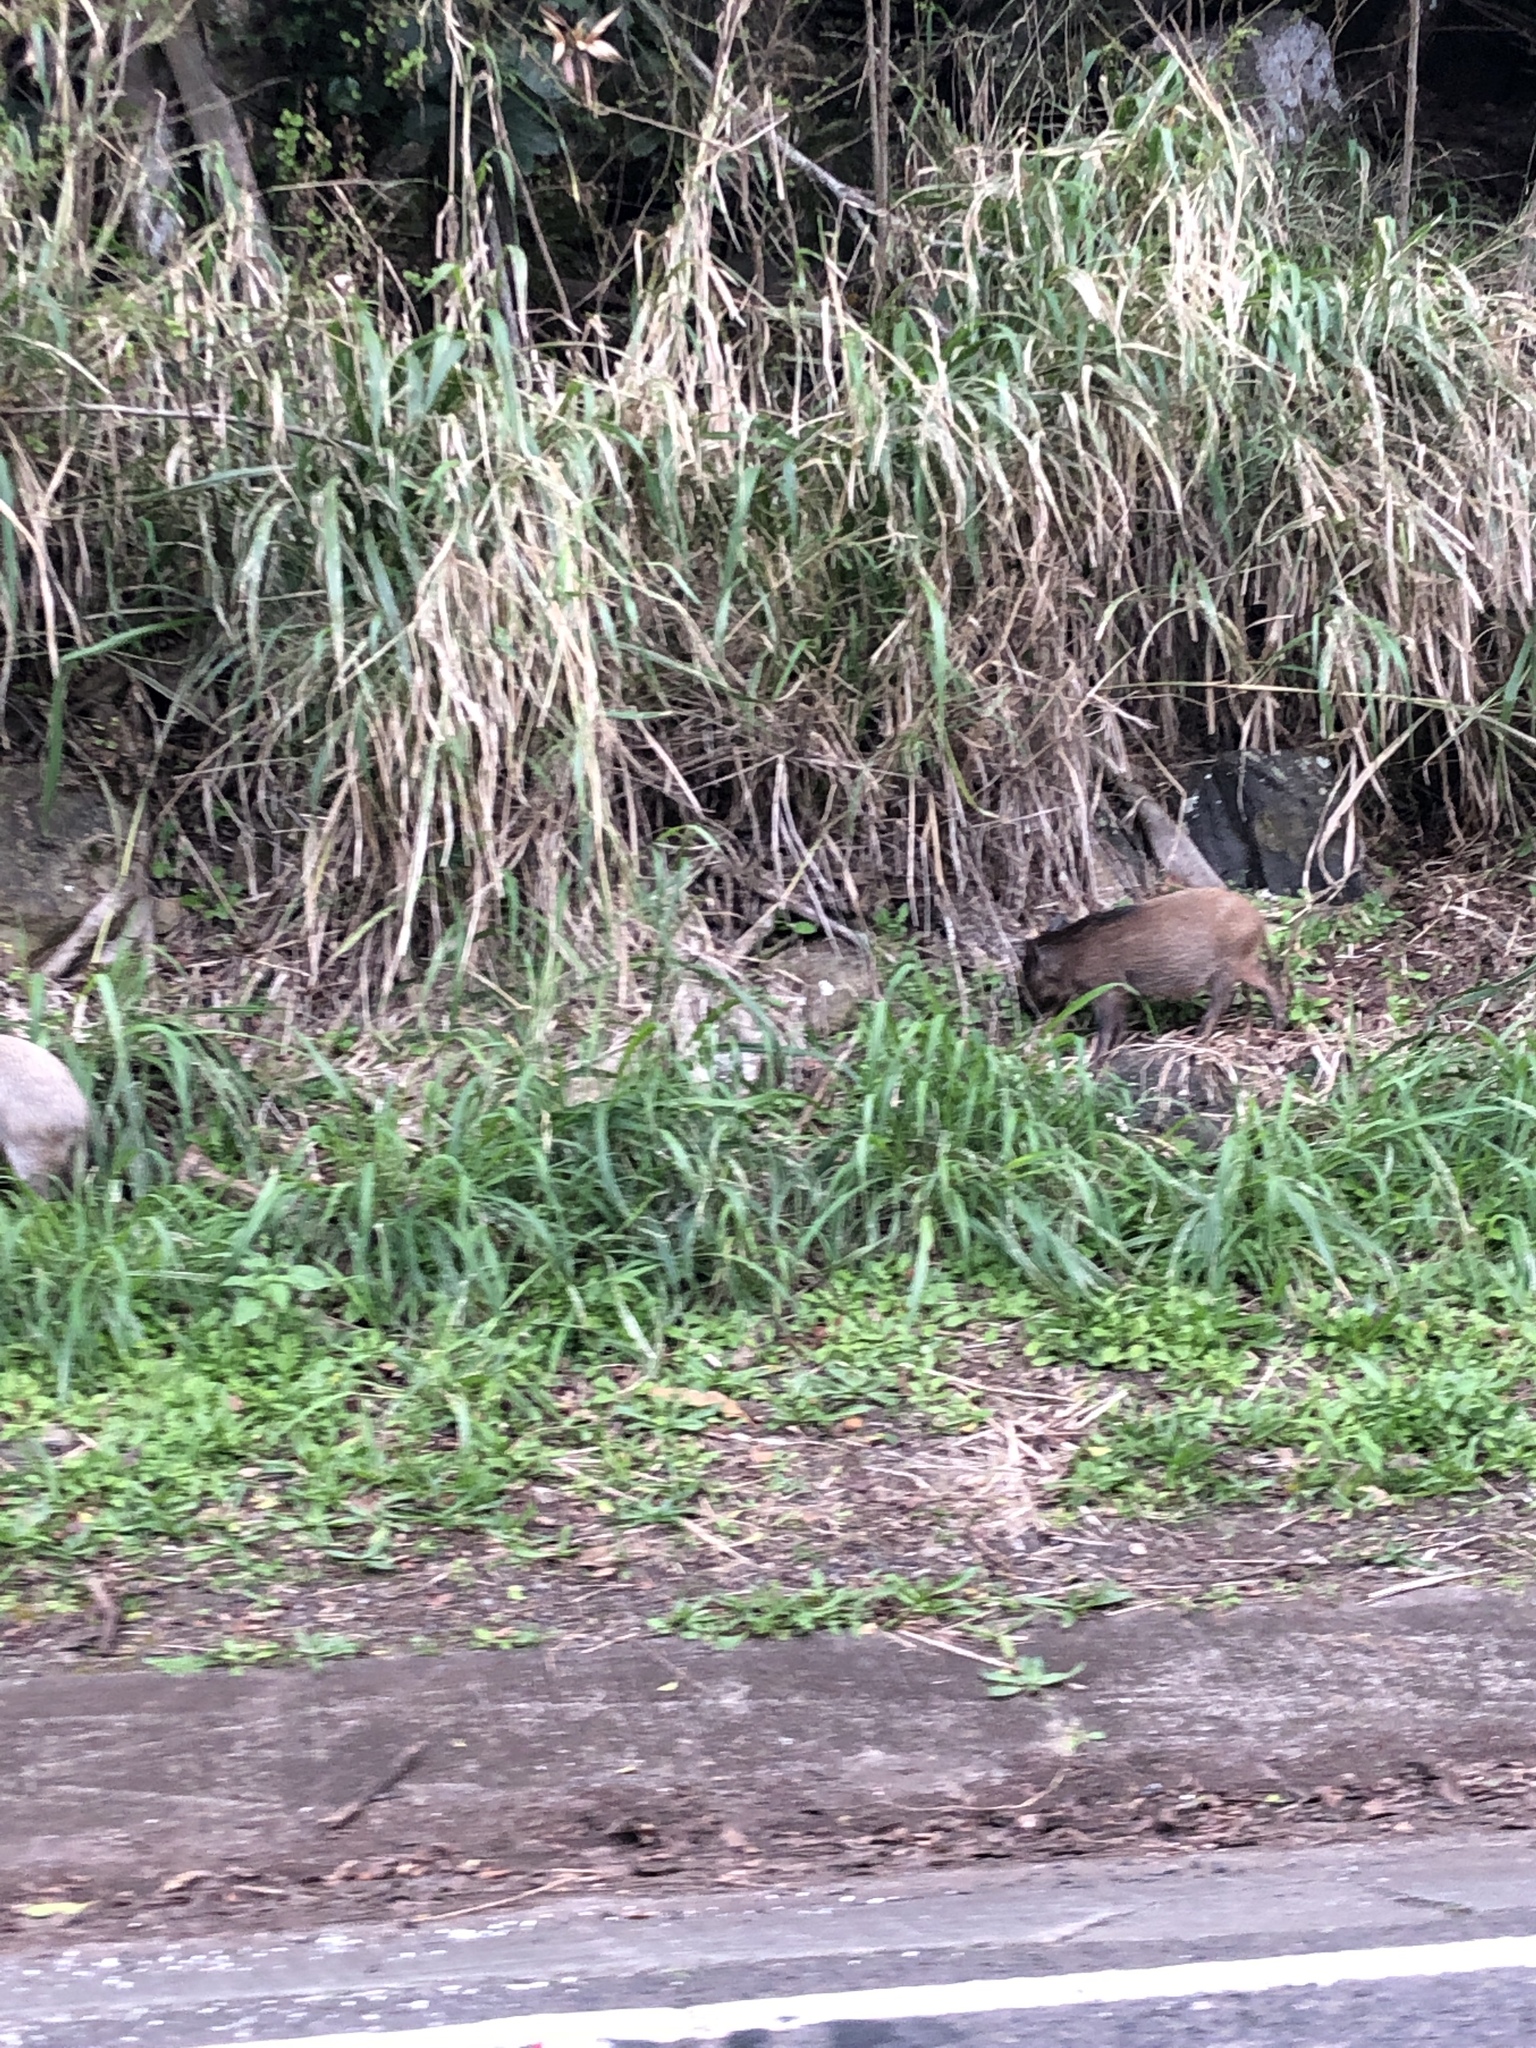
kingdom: Animalia
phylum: Chordata
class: Mammalia
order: Artiodactyla
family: Suidae
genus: Sus
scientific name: Sus scrofa
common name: Wild boar
